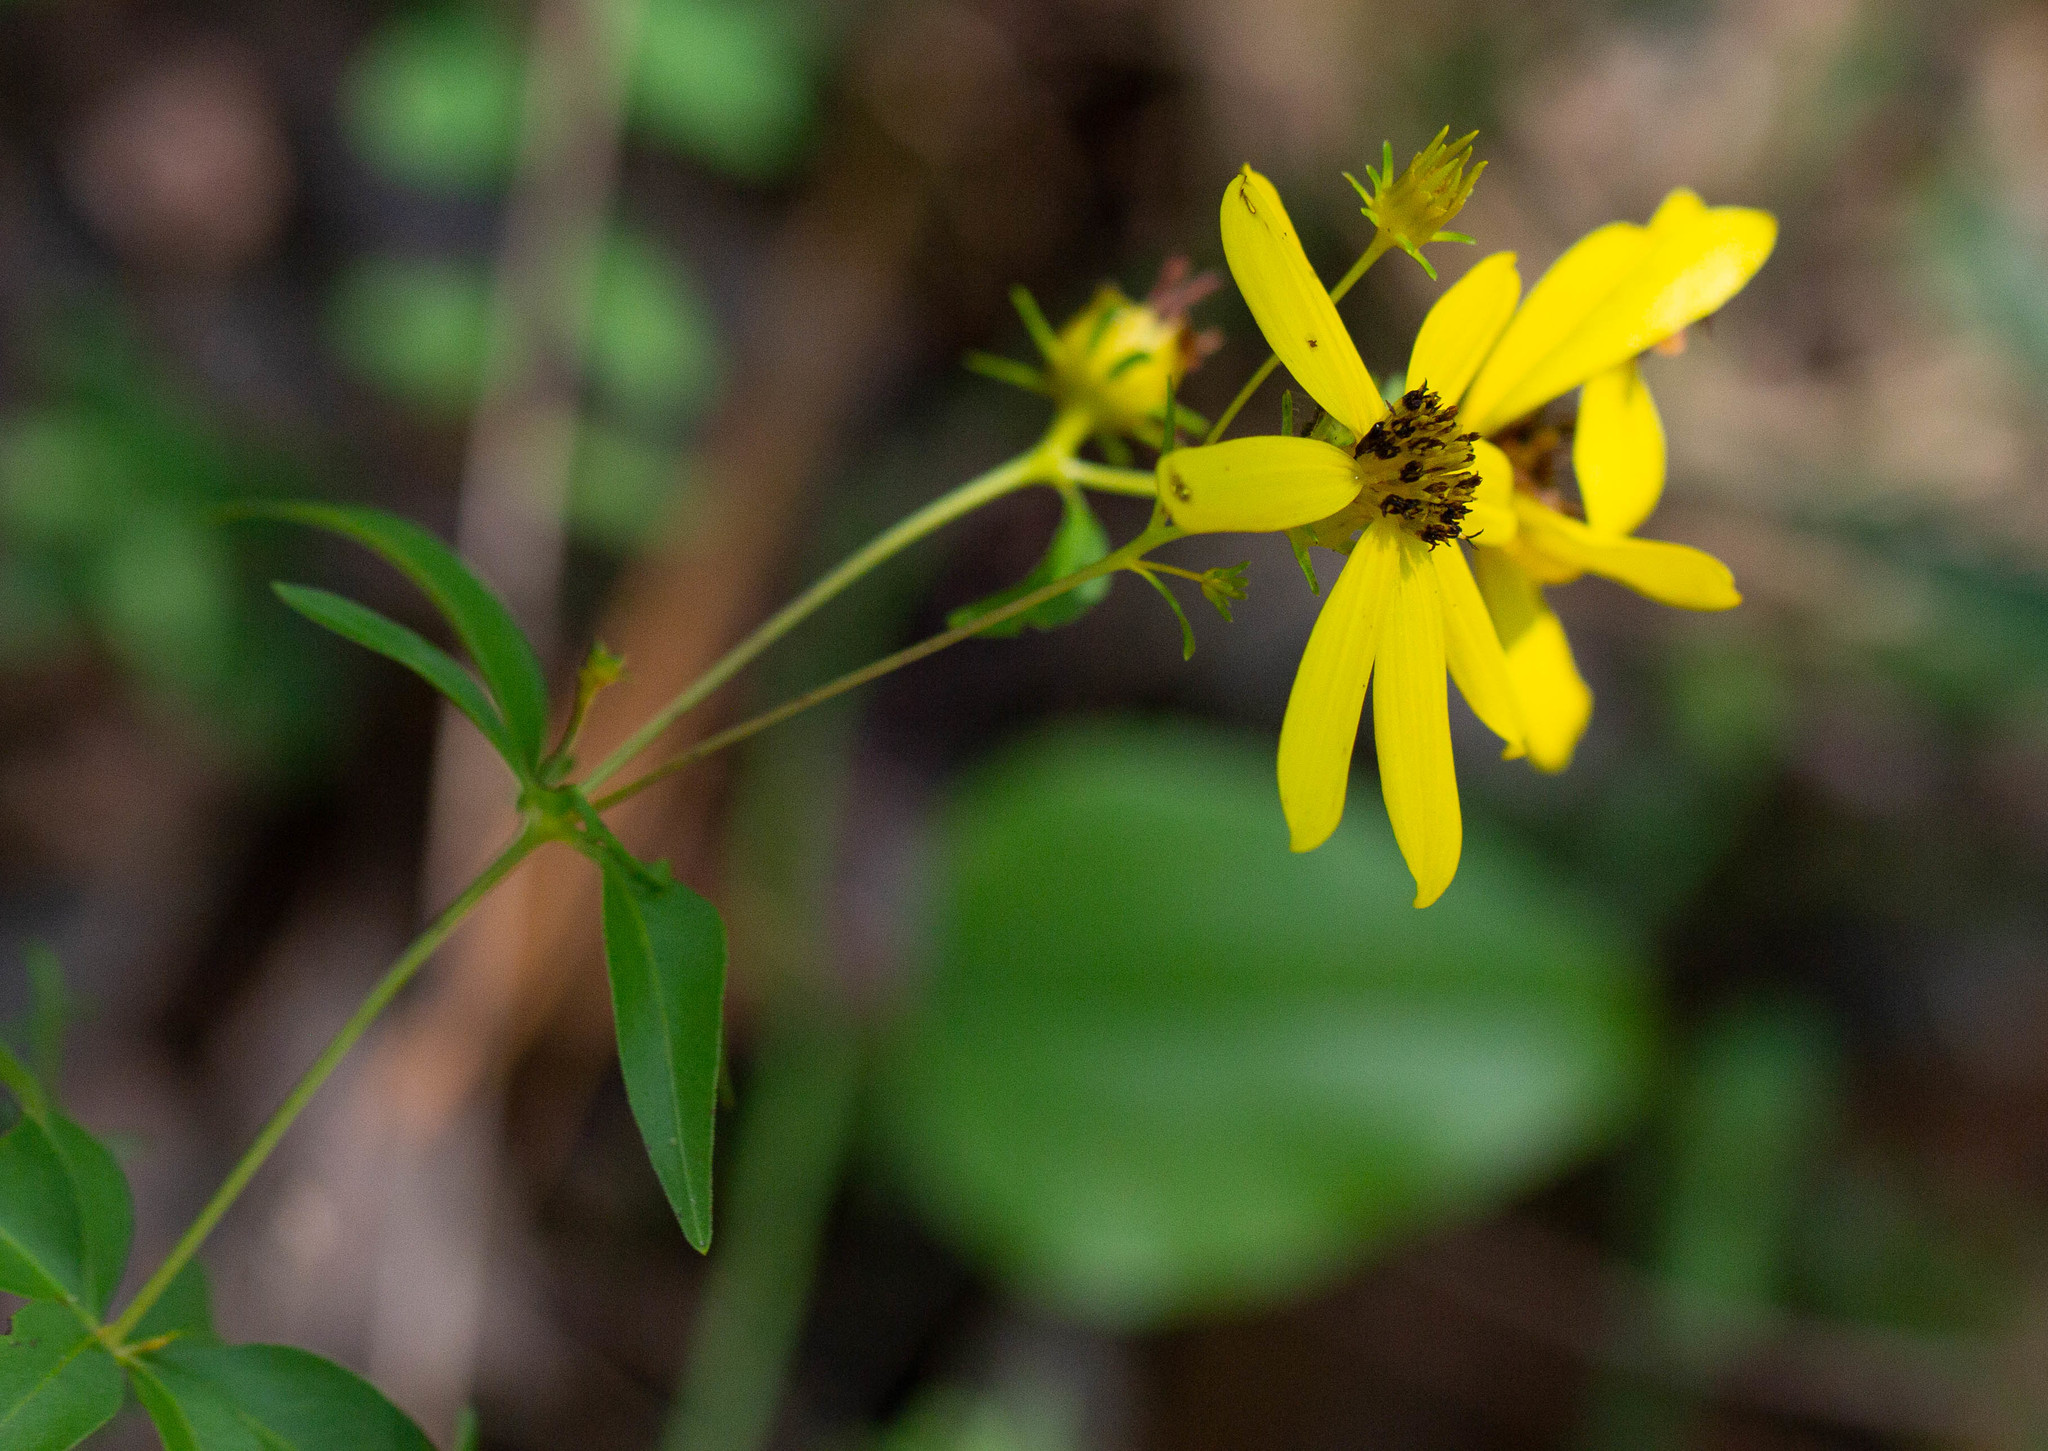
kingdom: Plantae
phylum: Tracheophyta
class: Magnoliopsida
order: Asterales
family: Asteraceae
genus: Coreopsis
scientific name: Coreopsis major
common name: Forest tickseed
